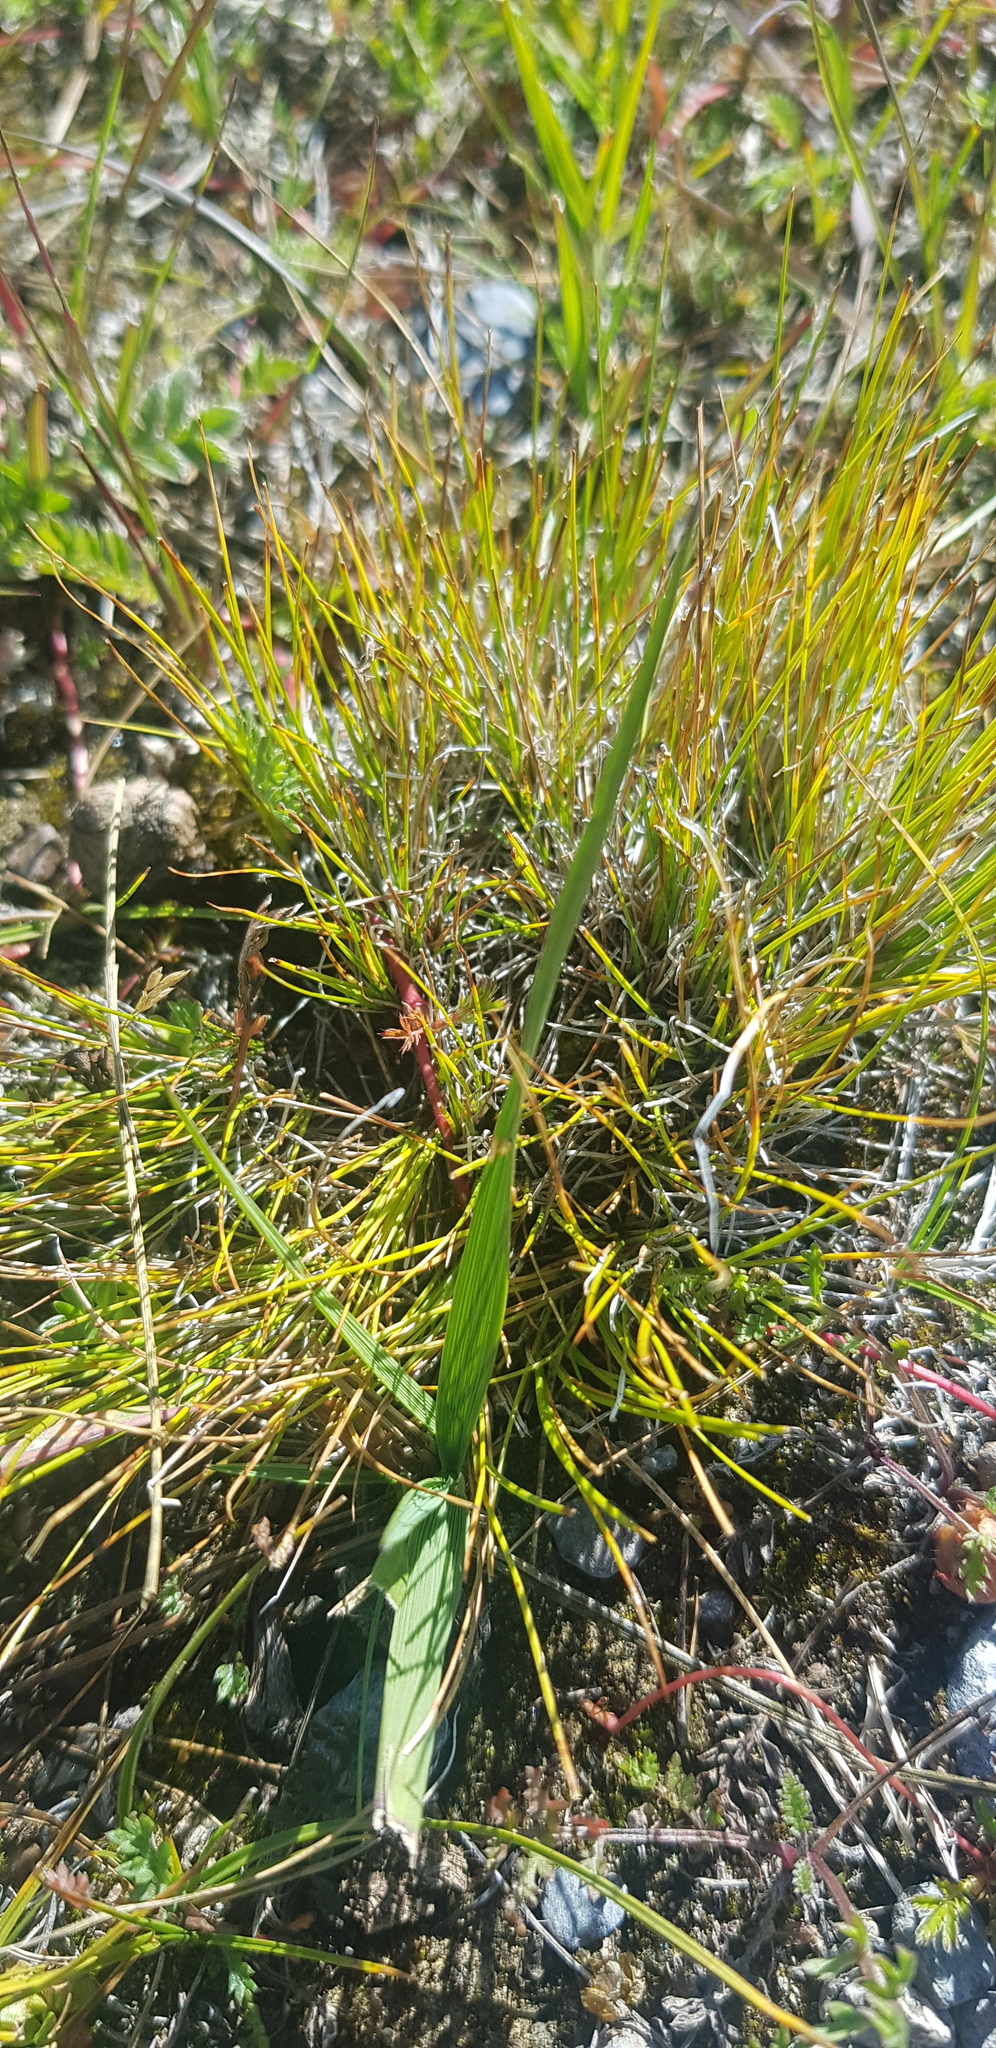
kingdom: Plantae
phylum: Tracheophyta
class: Liliopsida
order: Poales
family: Poaceae
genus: Leymus
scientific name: Leymus chinensis
